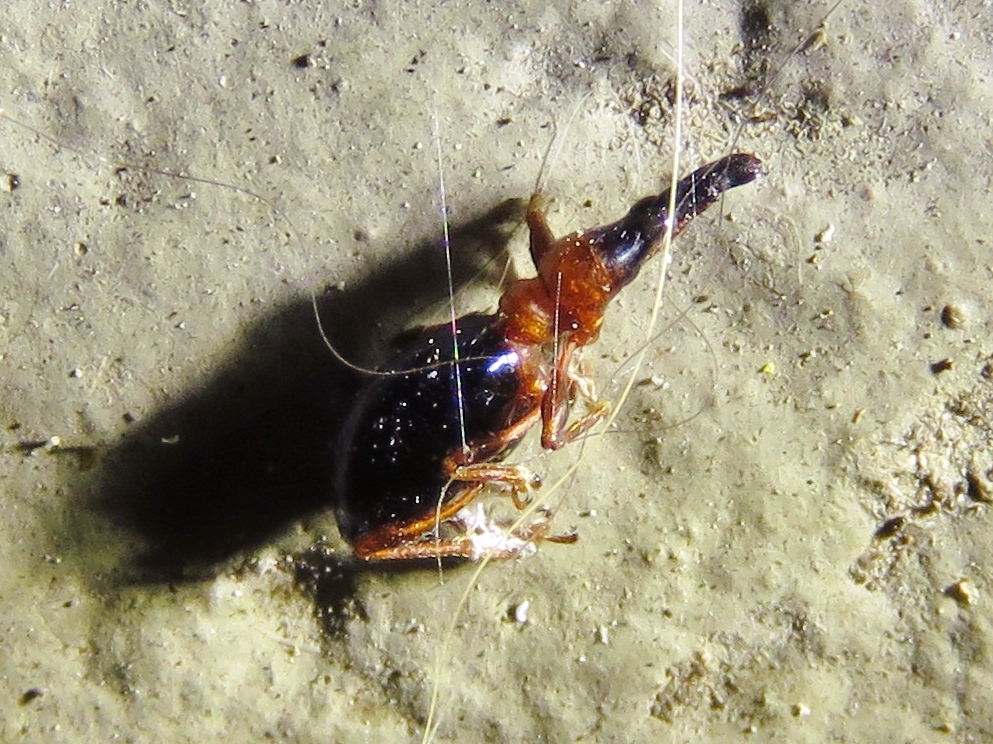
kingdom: Animalia
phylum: Arthropoda
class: Insecta
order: Coleoptera
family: Brentidae
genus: Cylas
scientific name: Cylas formicarius
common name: Sweetpotato weevil
